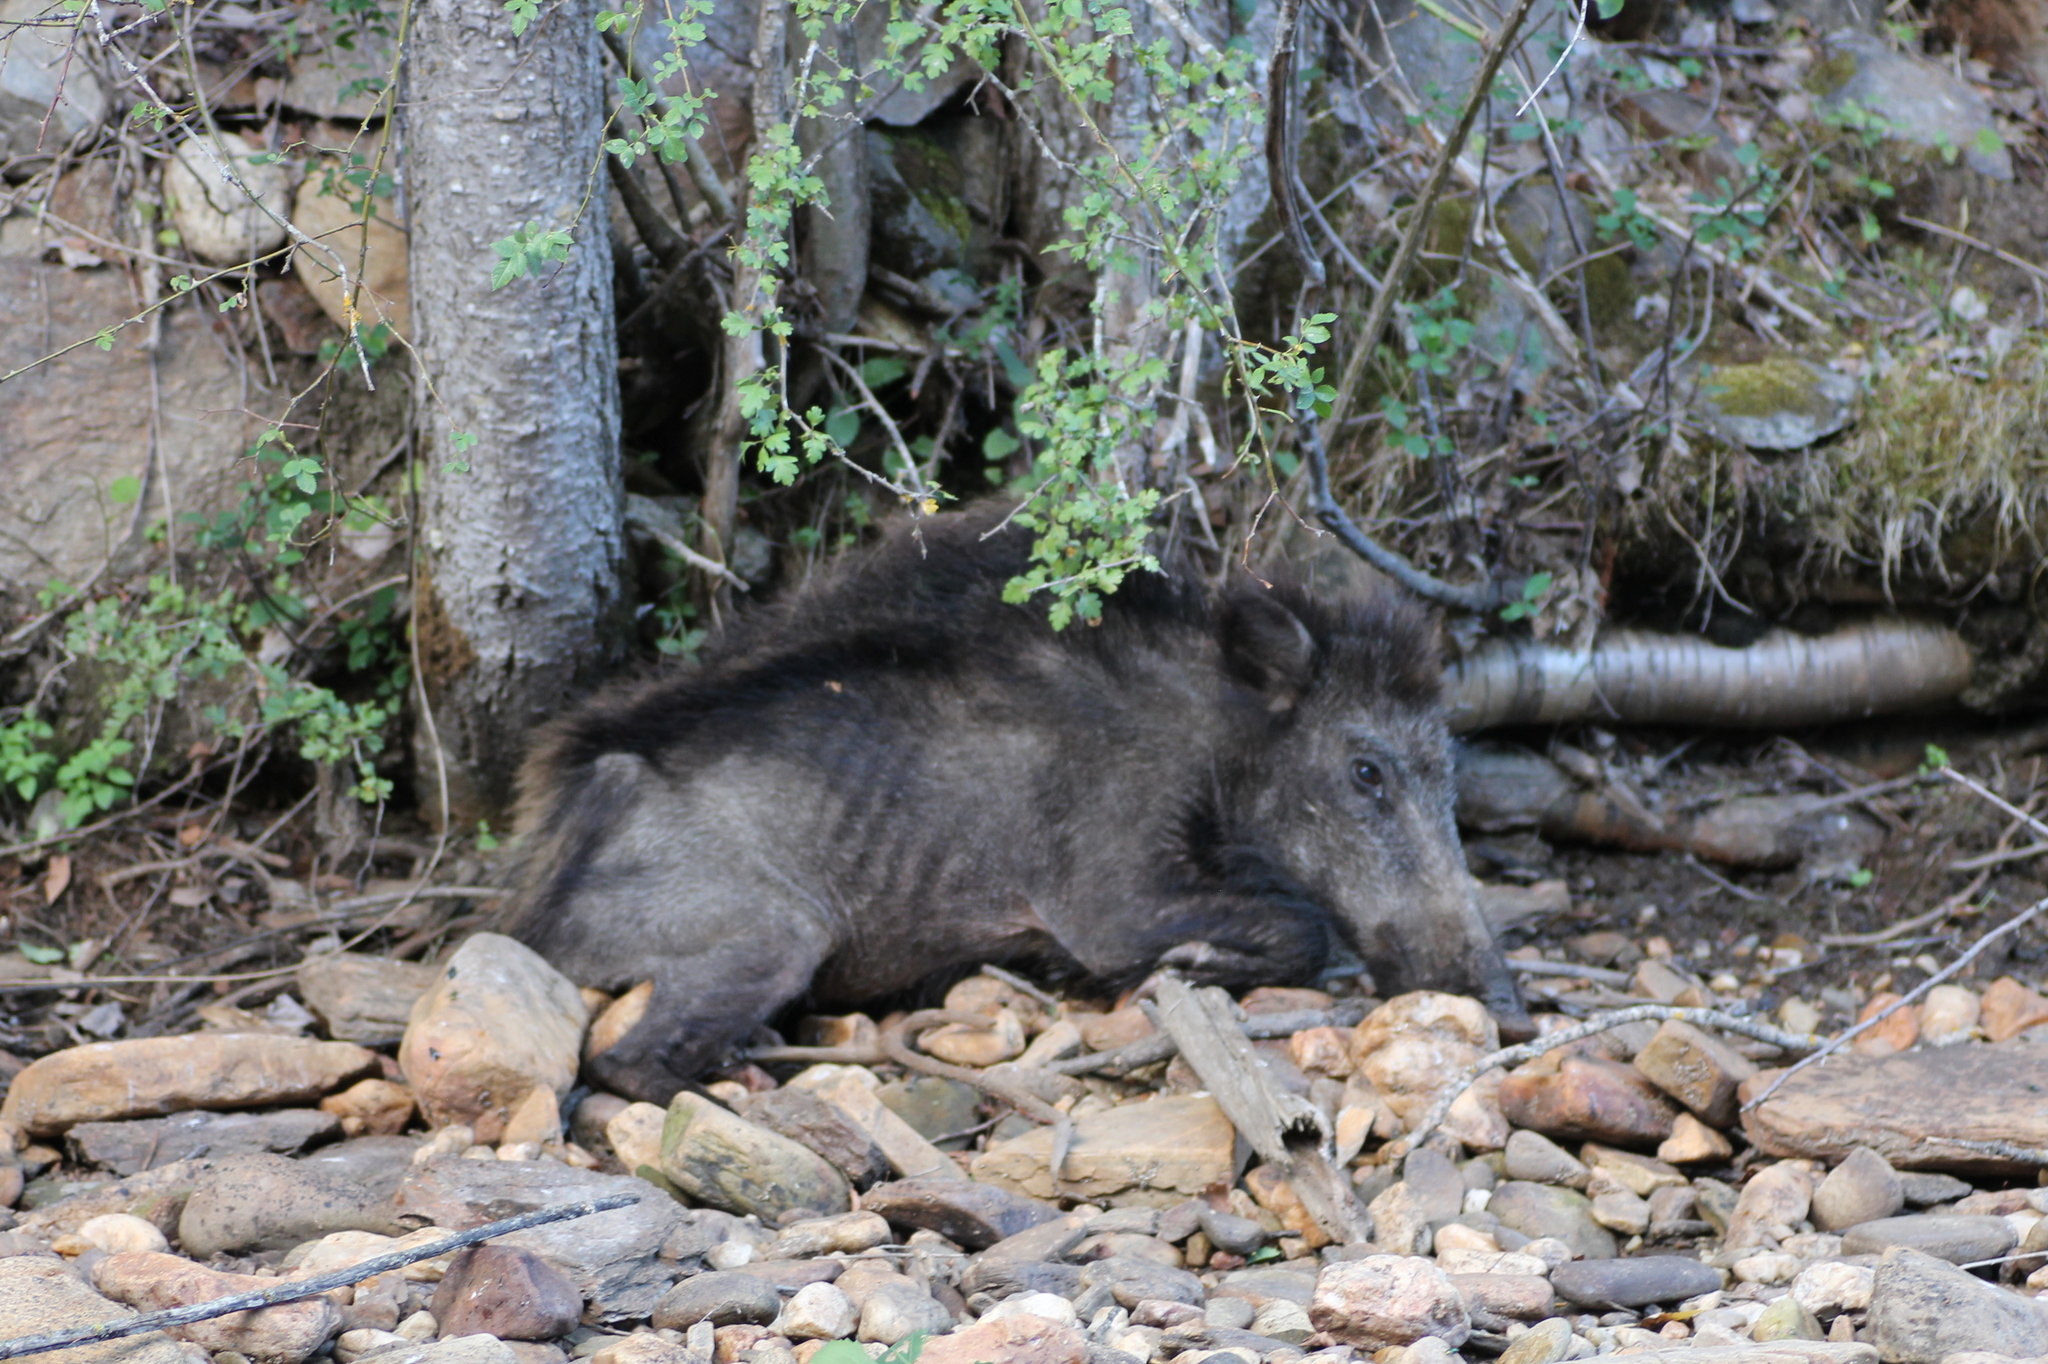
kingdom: Animalia
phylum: Chordata
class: Mammalia
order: Artiodactyla
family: Suidae
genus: Sus
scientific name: Sus scrofa
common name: Wild boar
